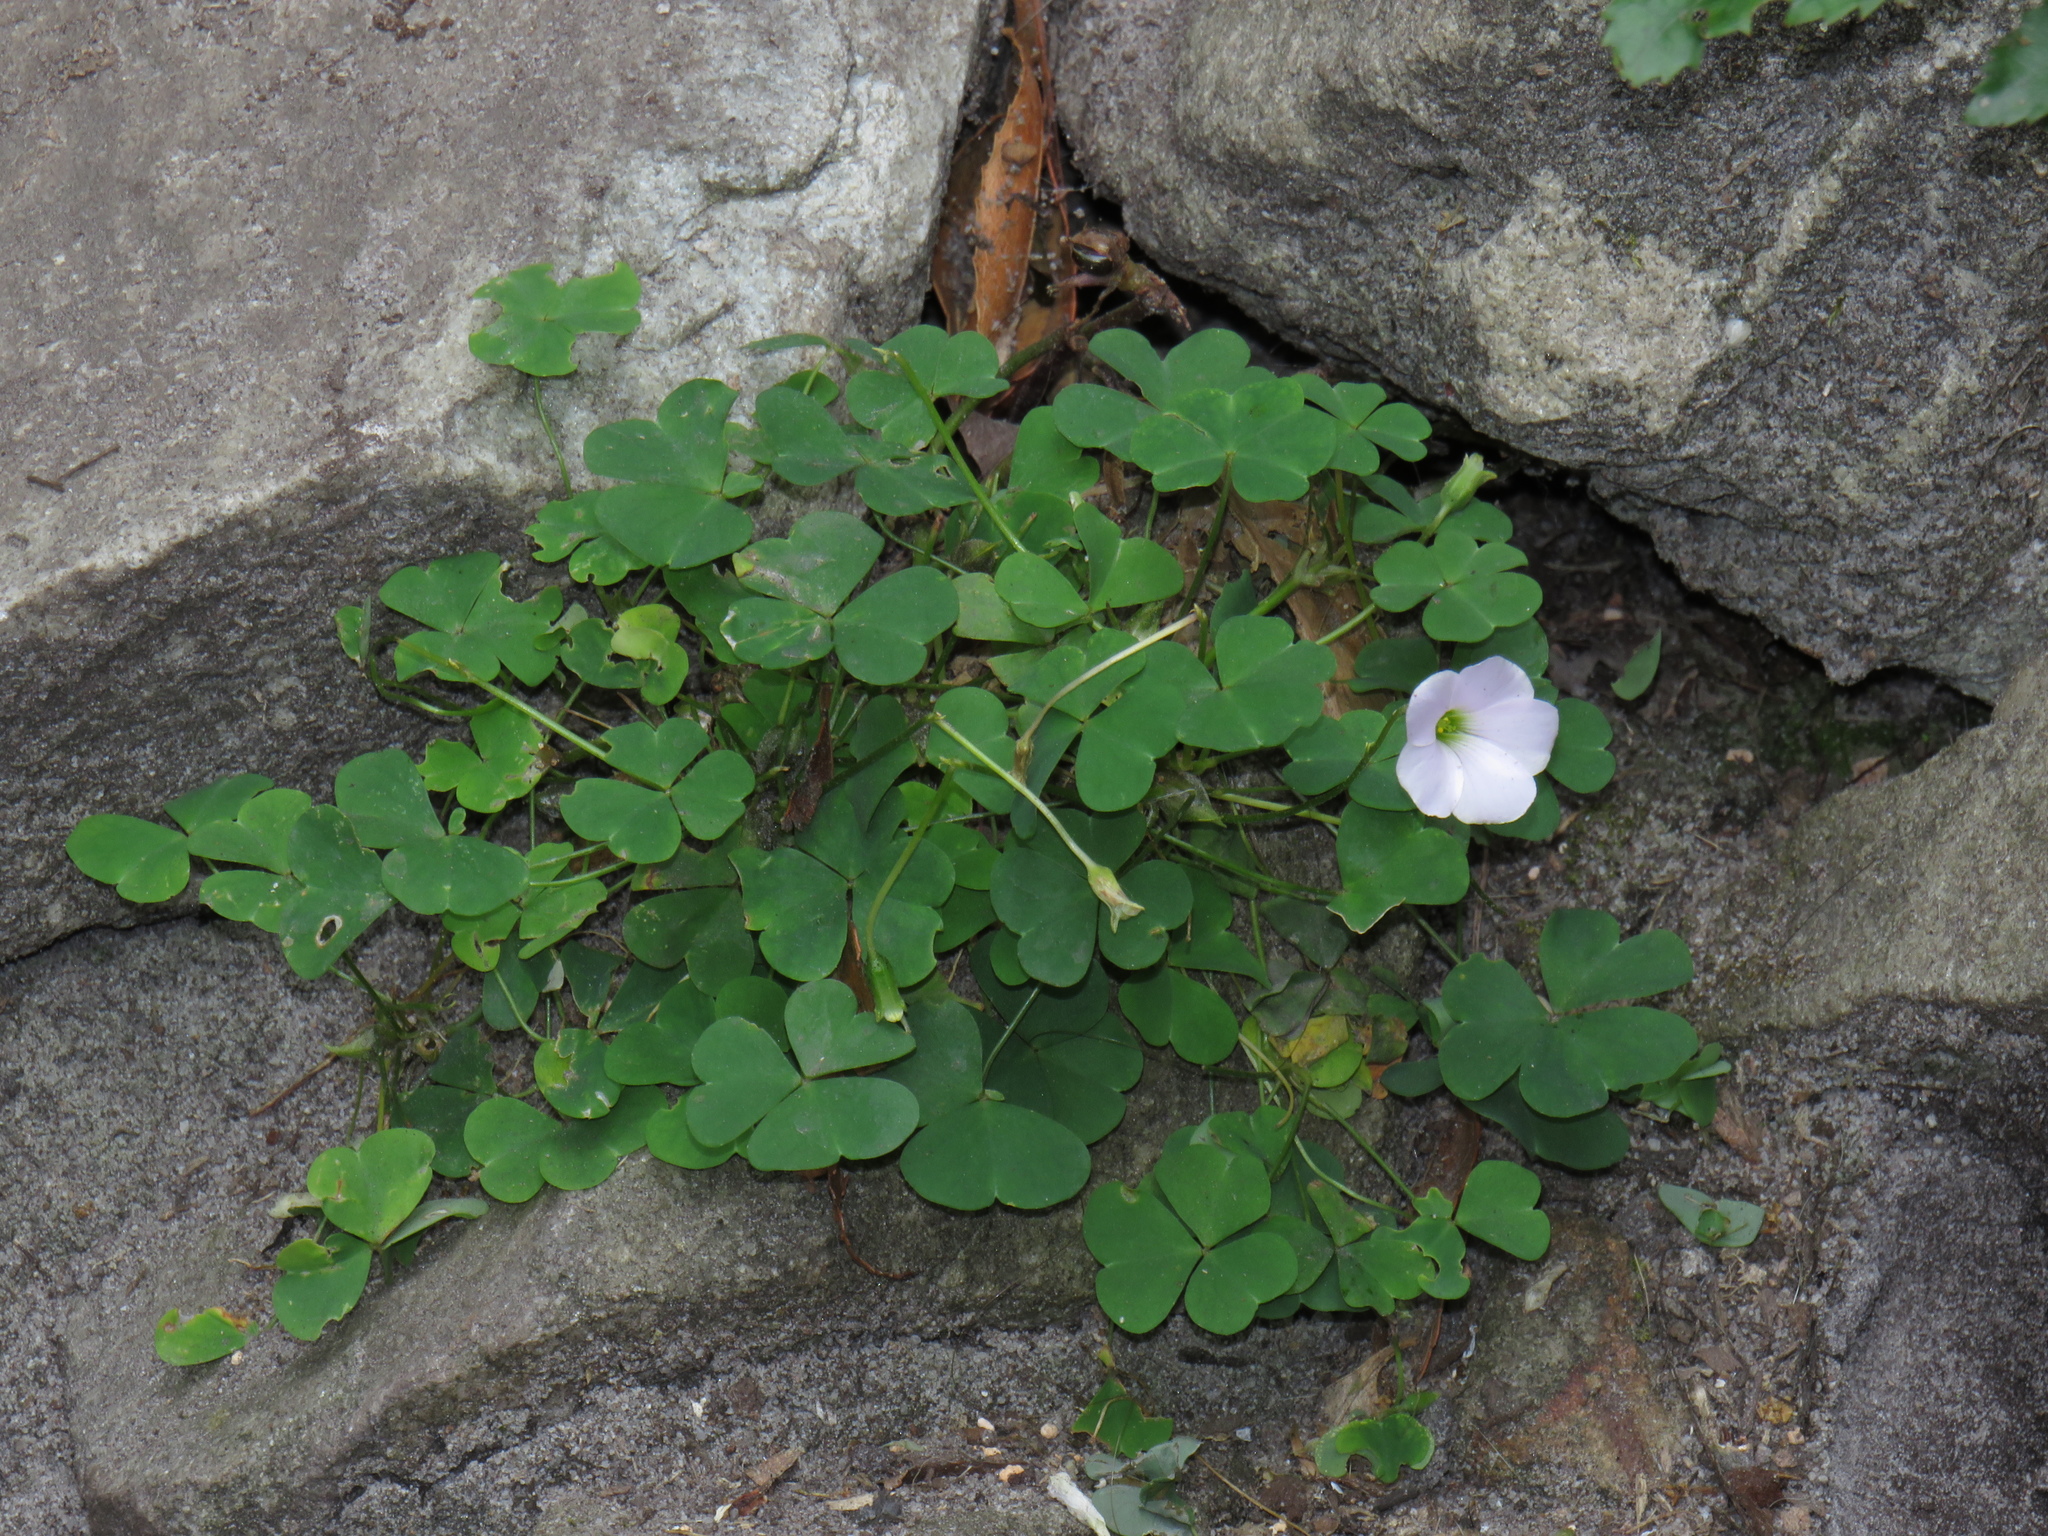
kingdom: Plantae
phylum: Tracheophyta
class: Magnoliopsida
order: Oxalidales
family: Oxalidaceae
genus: Oxalis
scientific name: Oxalis incarnata
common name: Pale pink-sorrel
